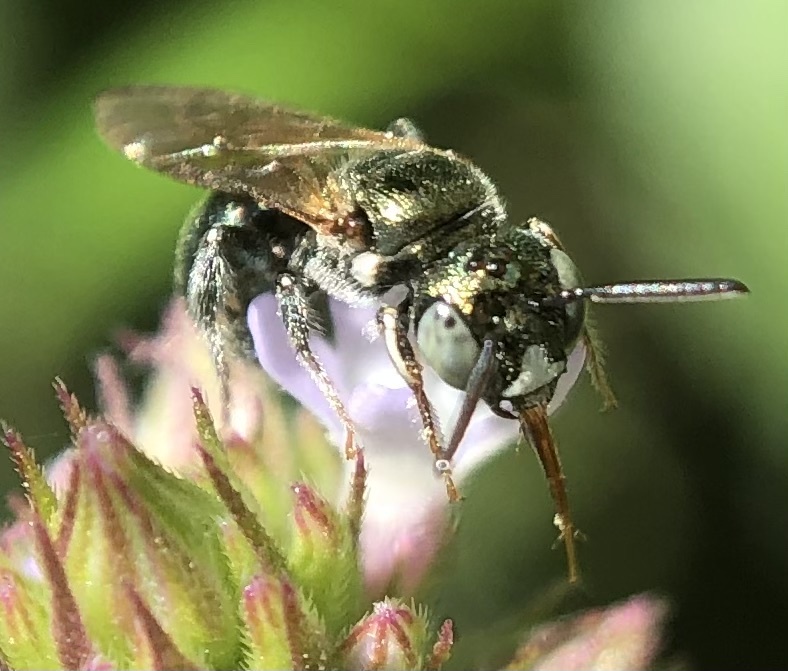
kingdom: Animalia
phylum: Arthropoda
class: Insecta
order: Hymenoptera
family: Apidae
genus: Ceratina
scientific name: Ceratina strenua
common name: Nimble carpenter bee
